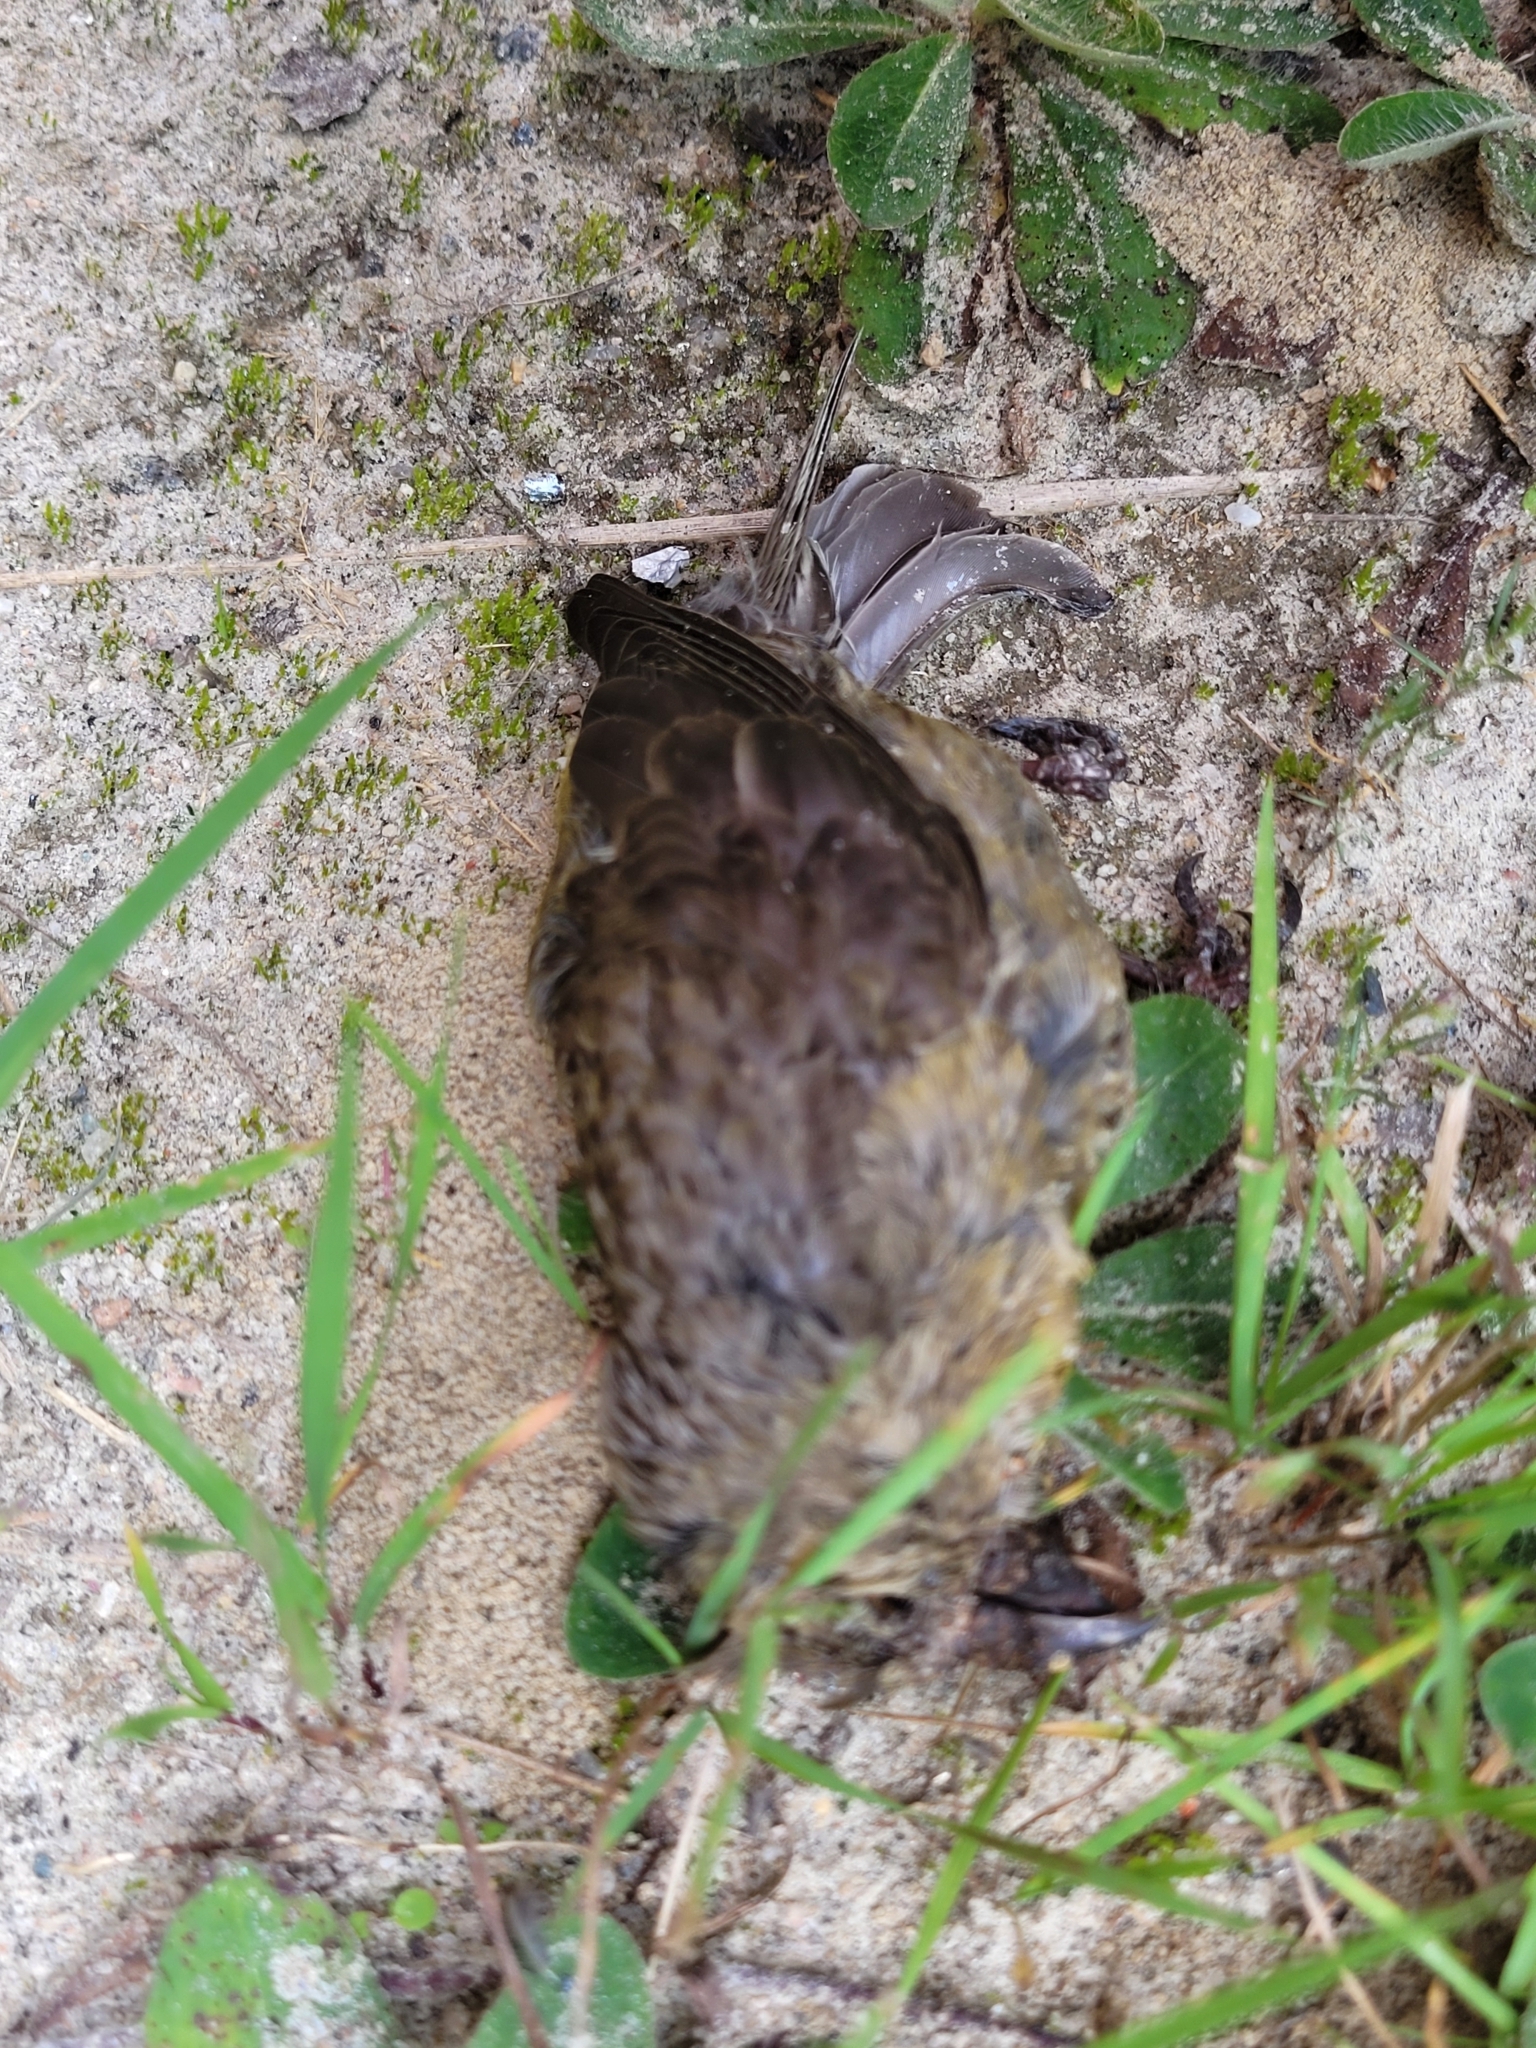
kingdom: Animalia
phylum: Chordata
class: Aves
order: Passeriformes
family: Fringillidae
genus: Loxia
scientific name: Loxia curvirostra
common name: Red crossbill
